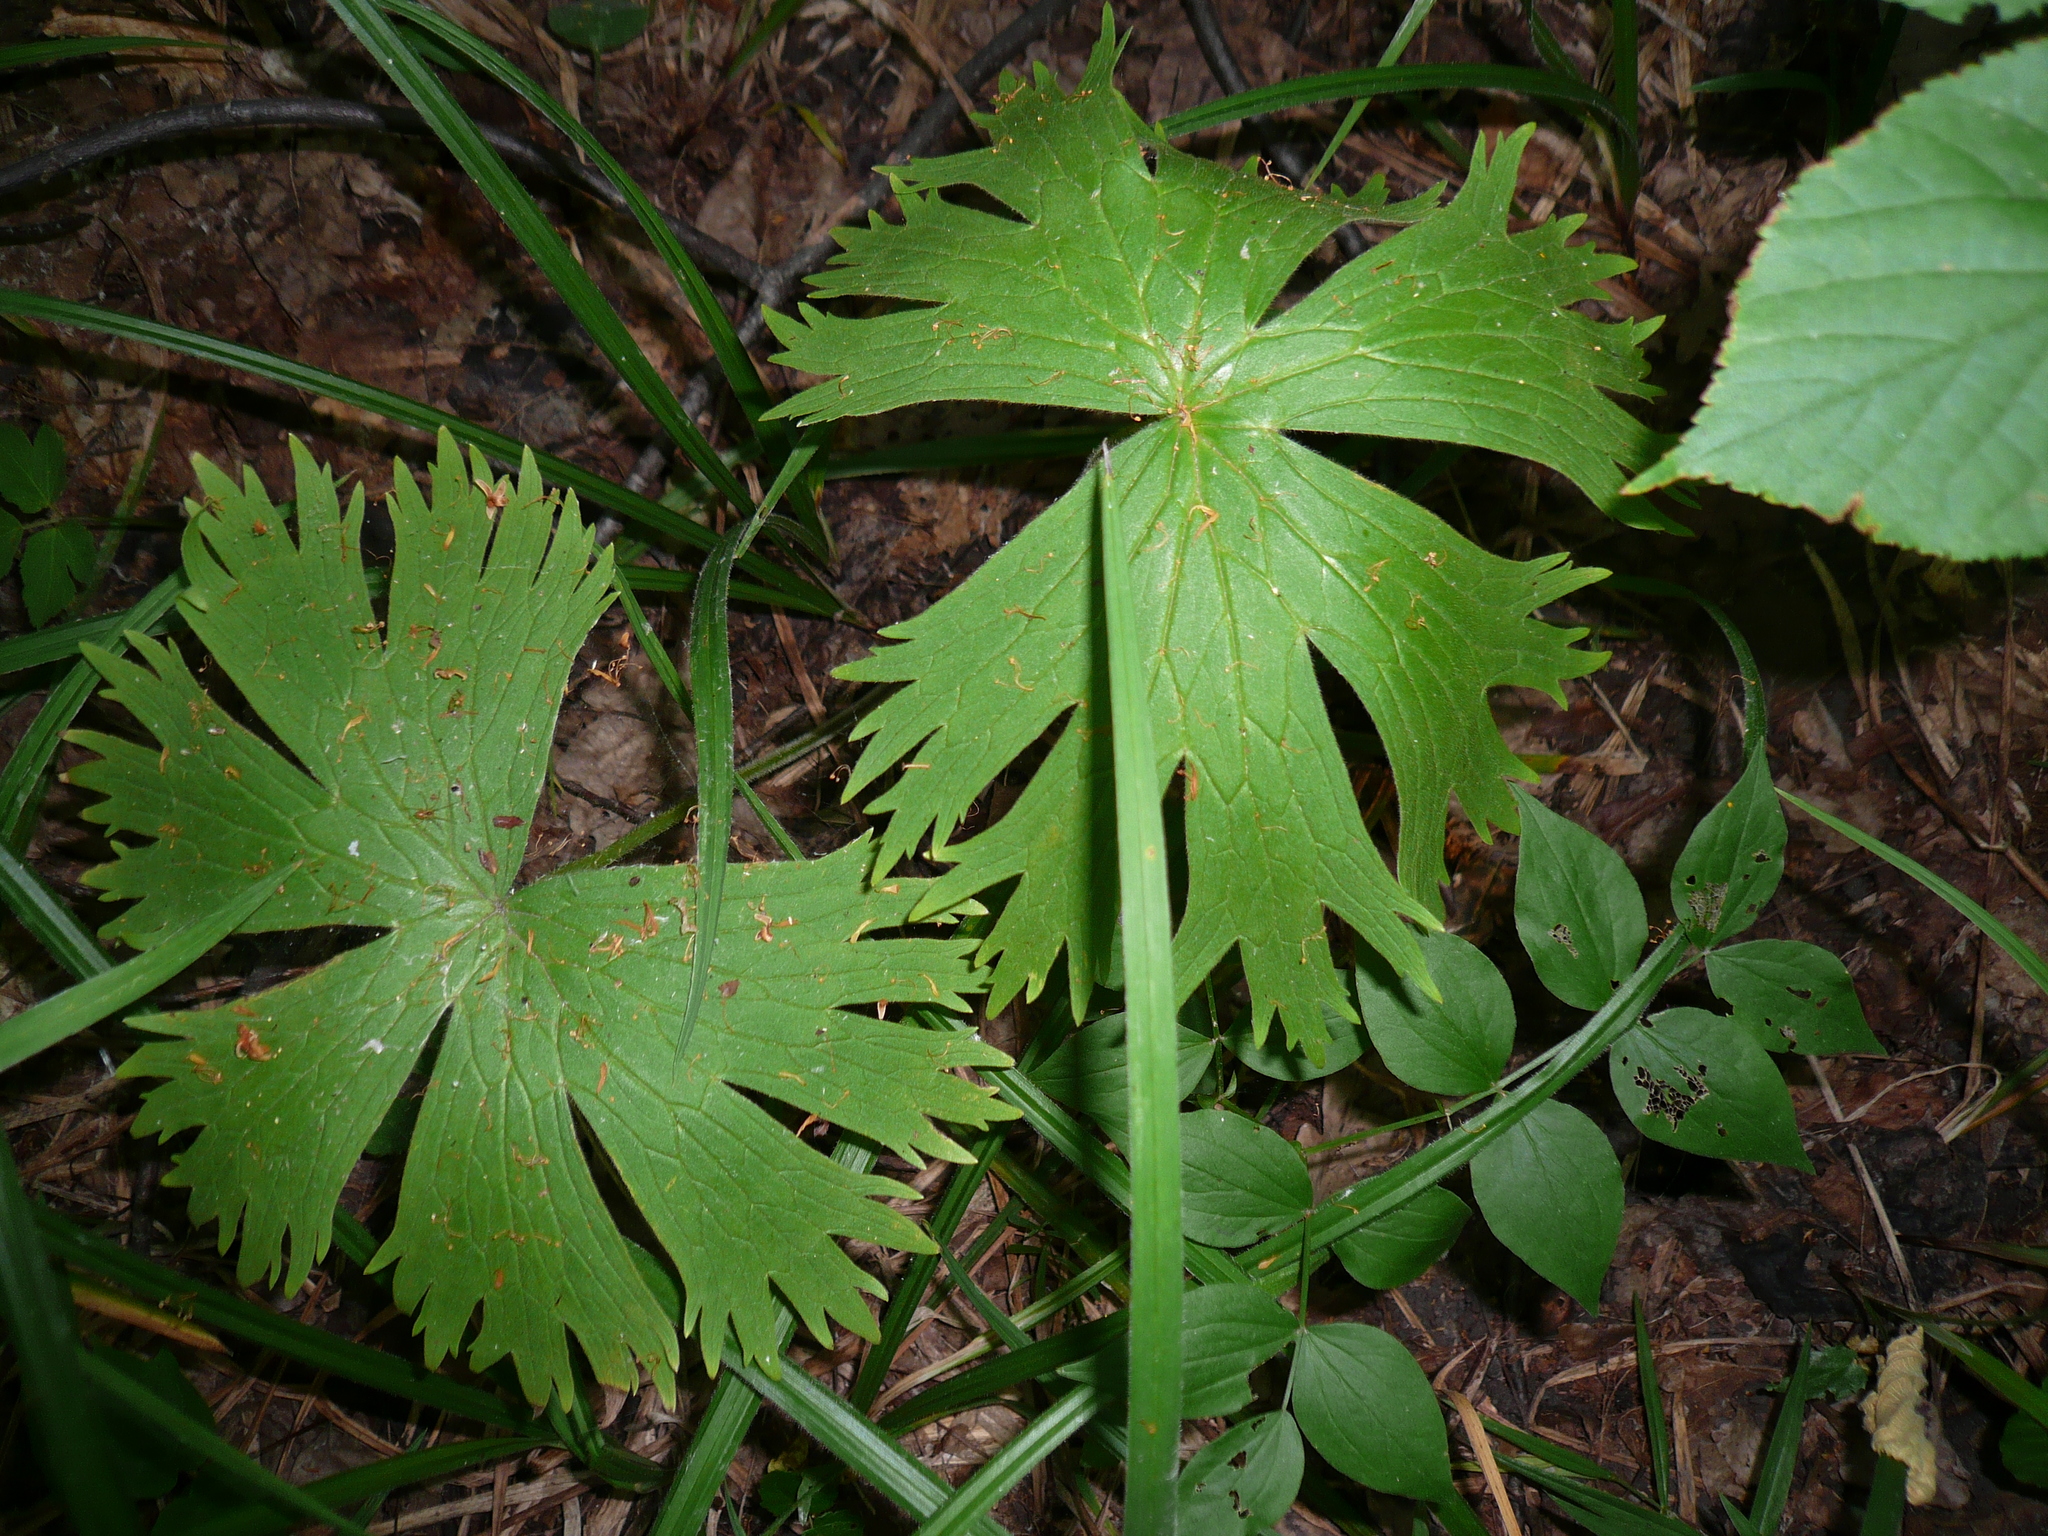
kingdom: Plantae
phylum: Tracheophyta
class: Magnoliopsida
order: Ranunculales
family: Ranunculaceae
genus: Aconitum
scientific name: Aconitum septentrionale
